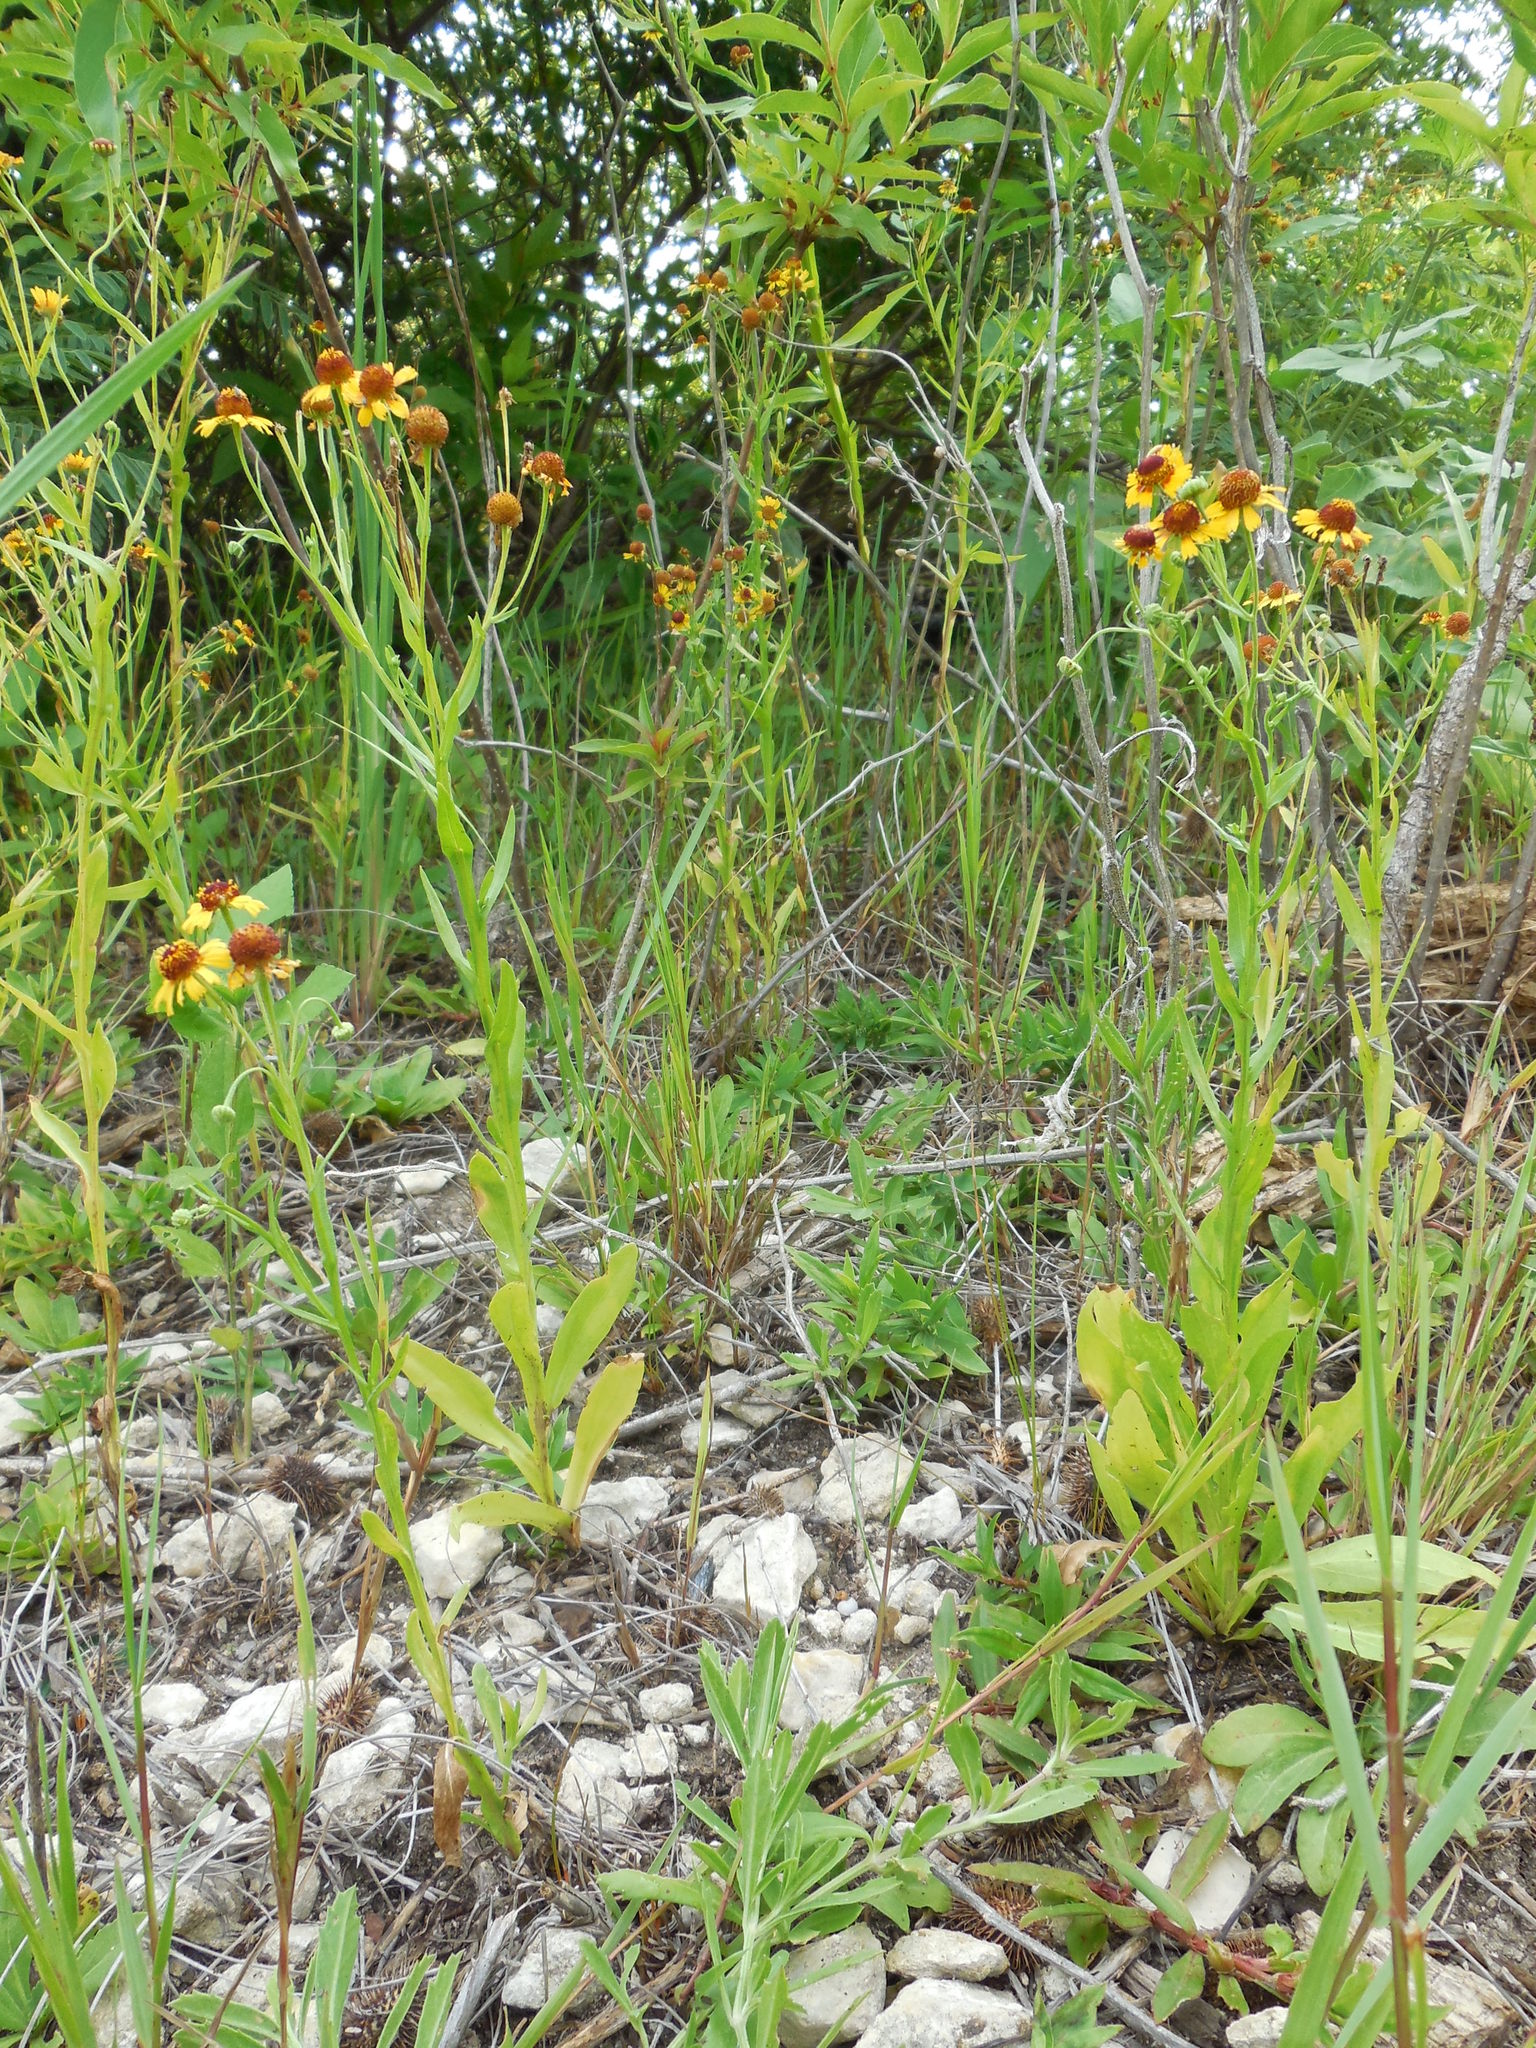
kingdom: Plantae
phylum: Tracheophyta
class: Magnoliopsida
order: Asterales
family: Asteraceae
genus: Helenium
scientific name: Helenium elegans
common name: Pretty sneezeweed
